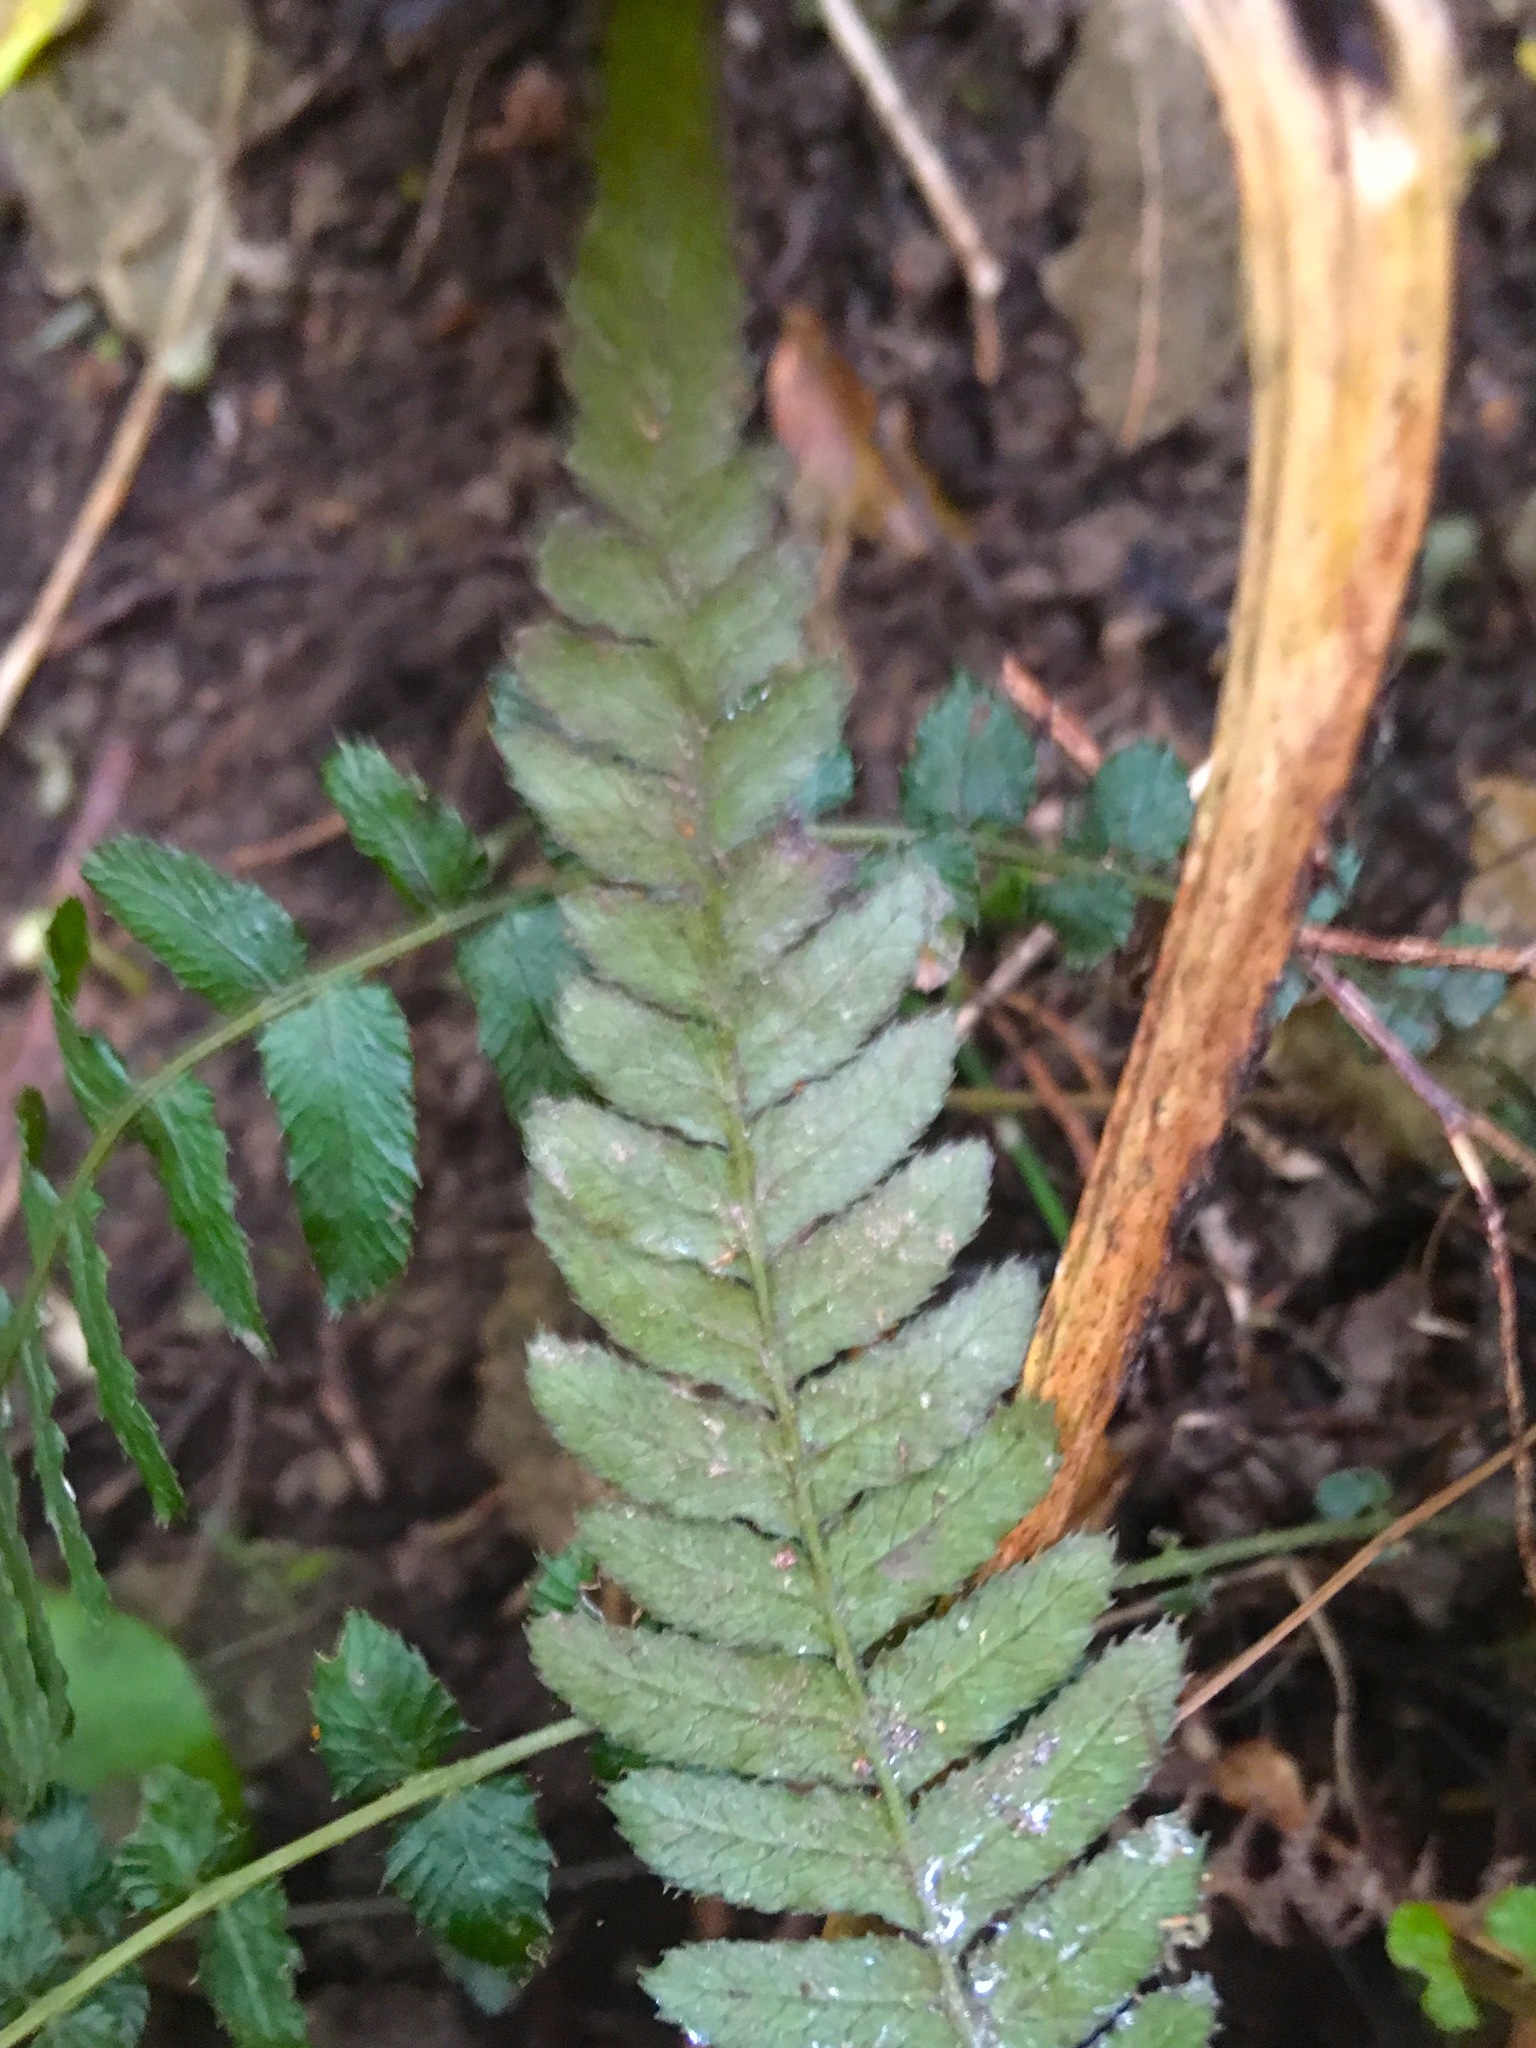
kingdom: Plantae
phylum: Tracheophyta
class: Polypodiopsida
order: Polypodiales
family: Blechnaceae
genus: Doodia
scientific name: Doodia australis
